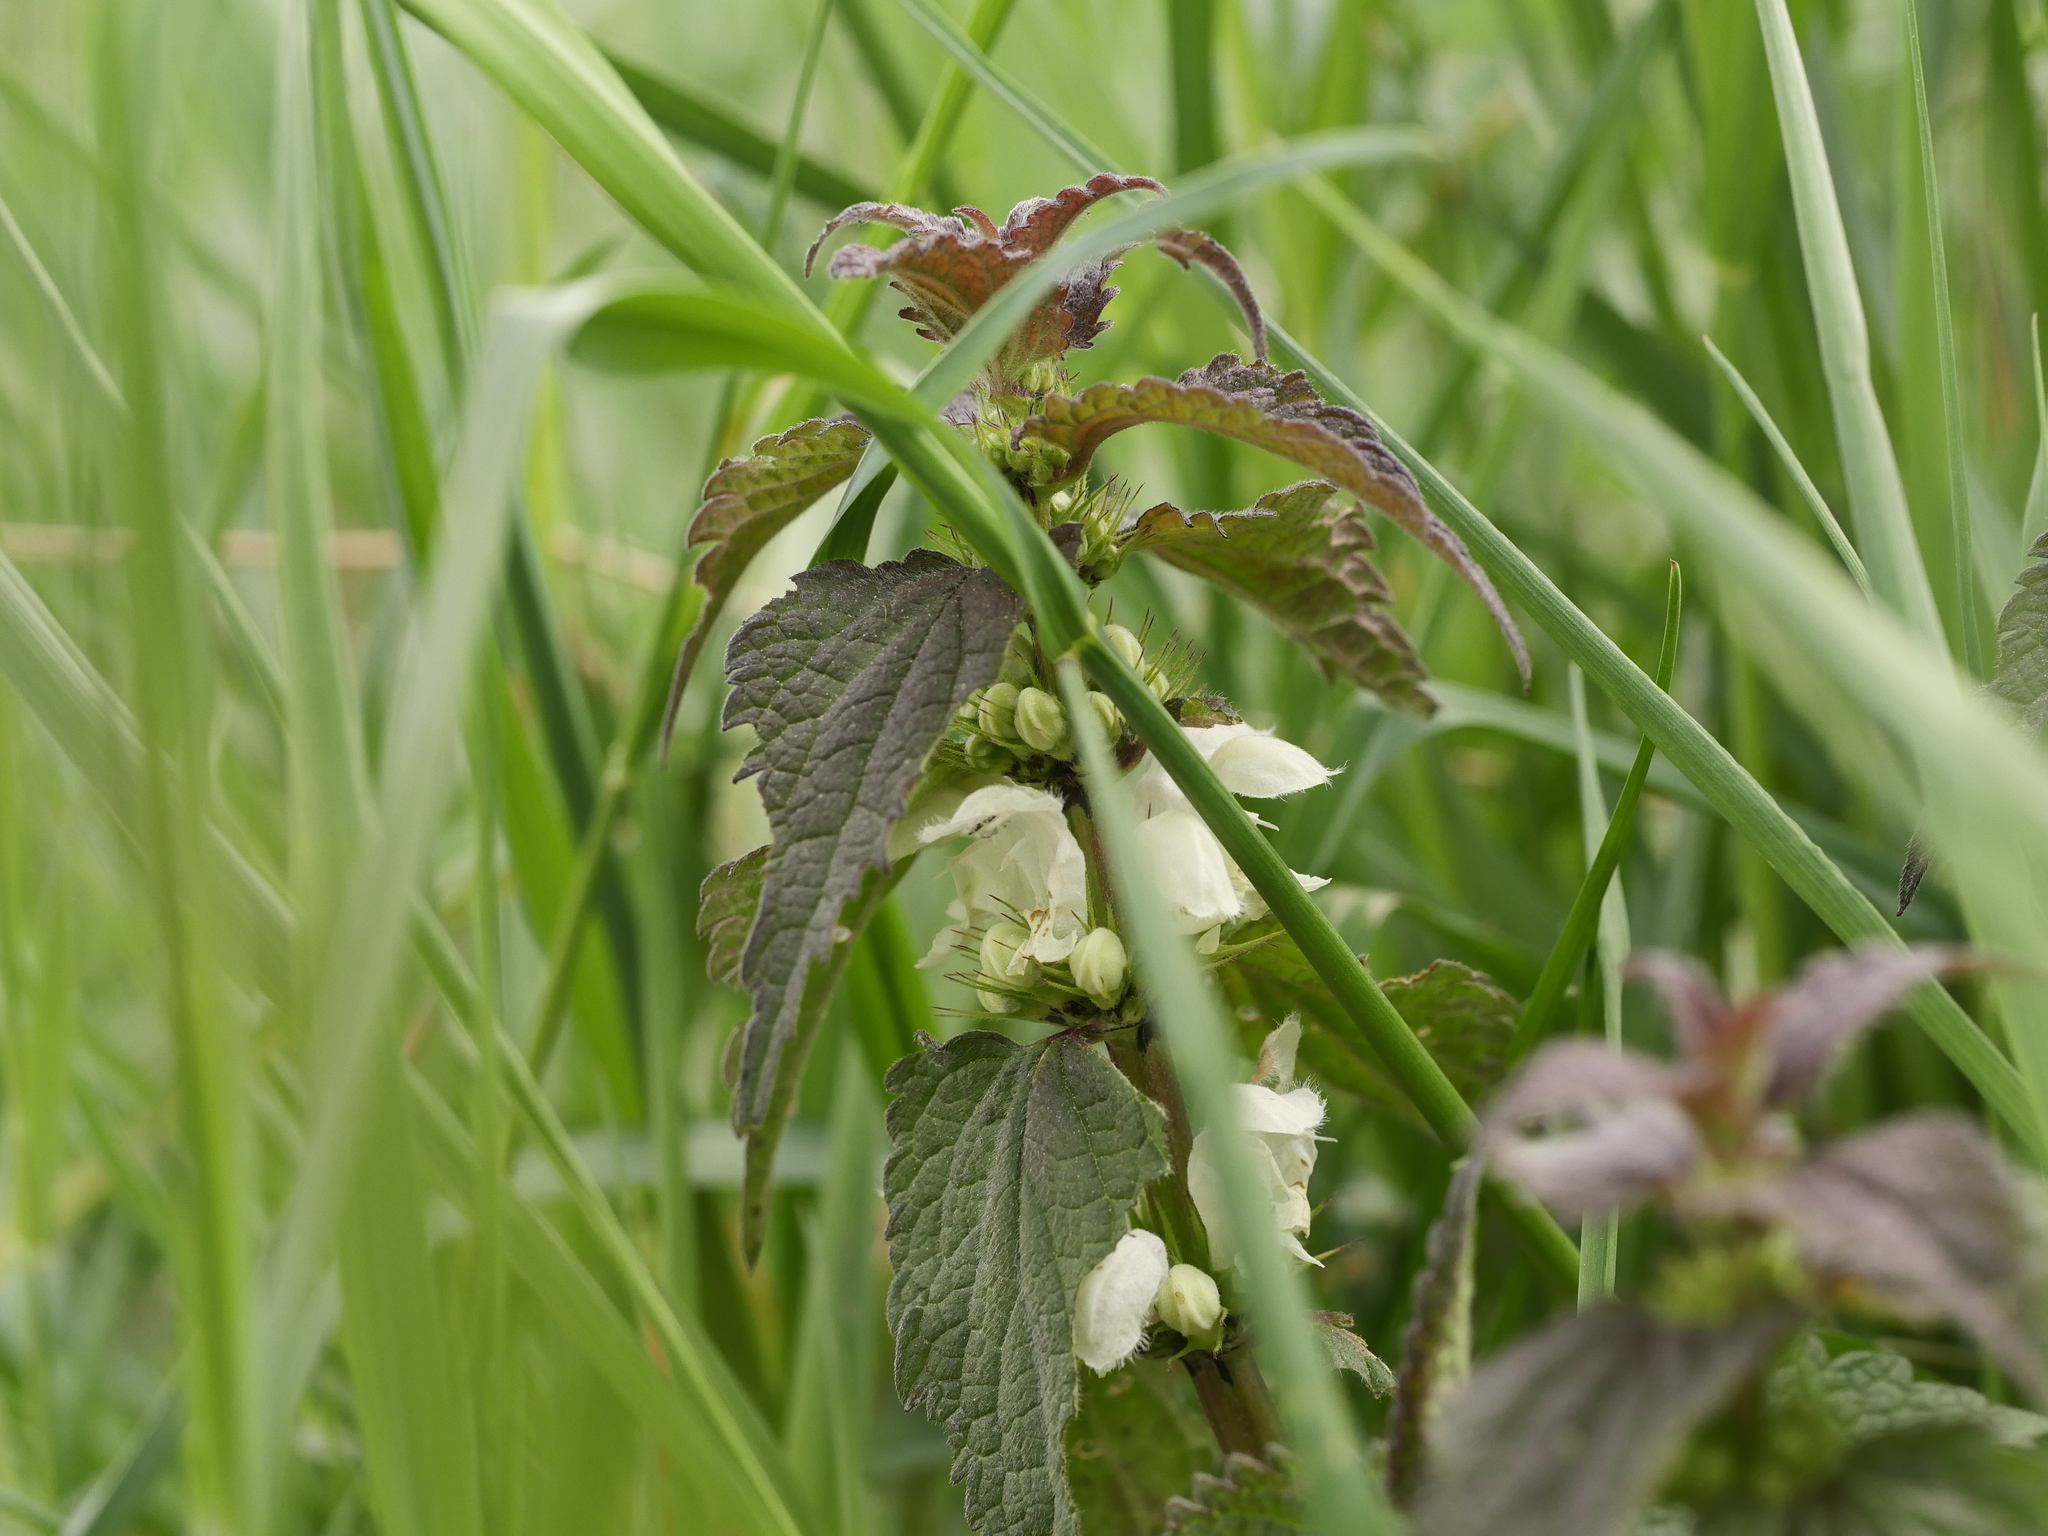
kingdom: Plantae
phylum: Tracheophyta
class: Magnoliopsida
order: Lamiales
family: Lamiaceae
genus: Lamium
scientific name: Lamium album
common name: White dead-nettle
